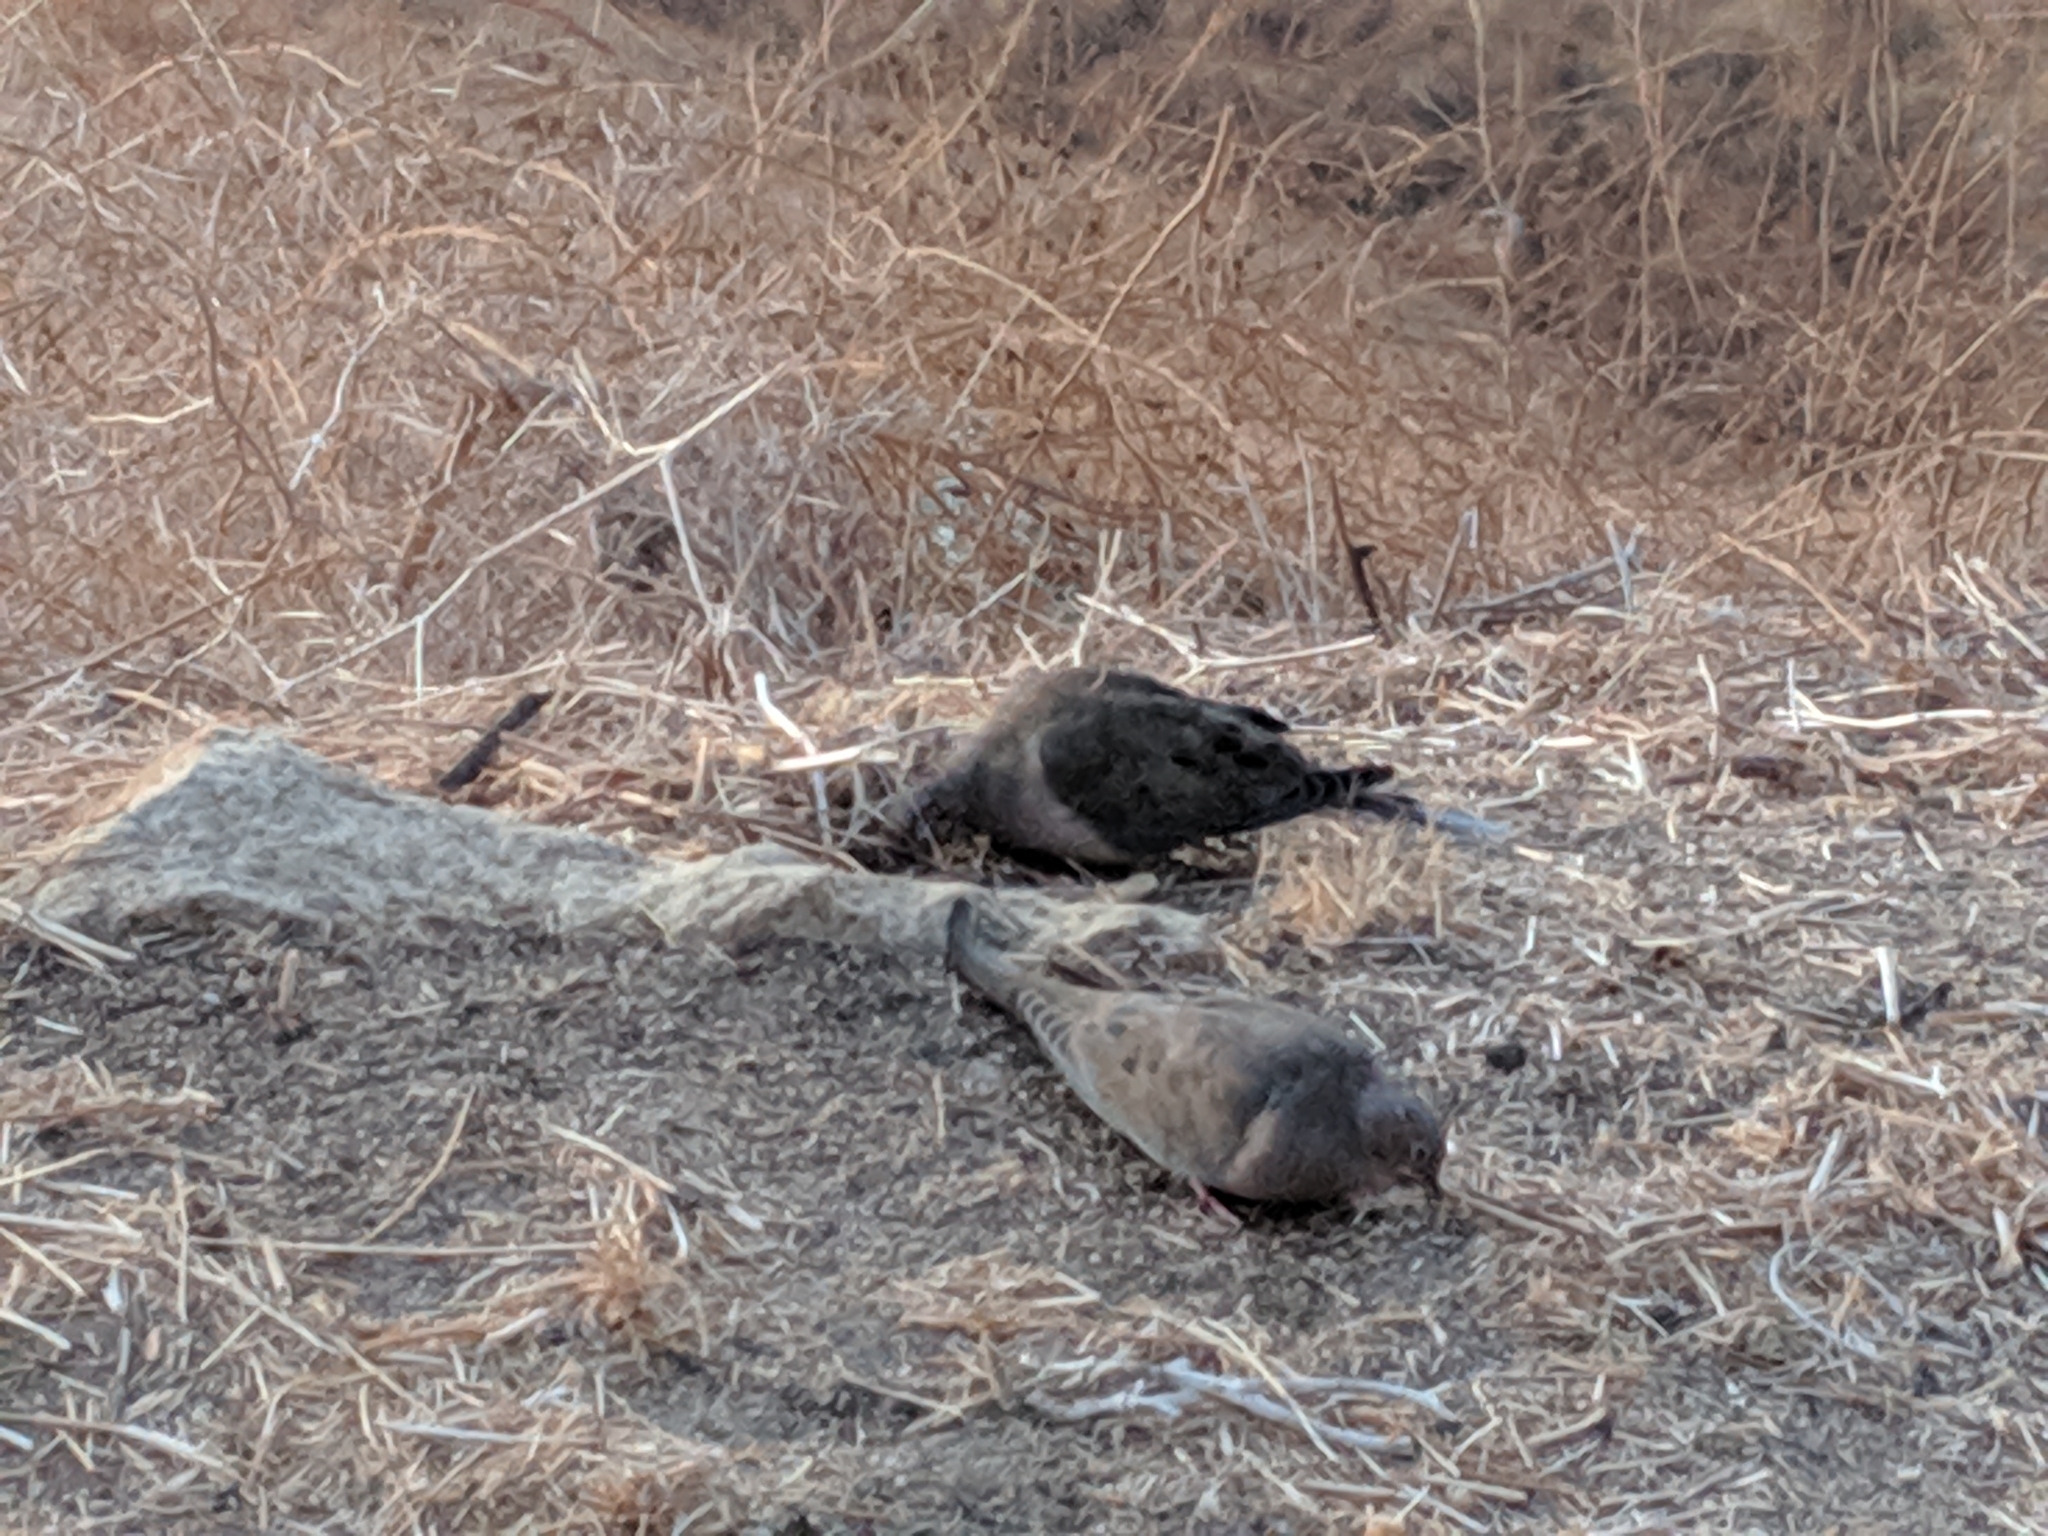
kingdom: Animalia
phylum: Chordata
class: Aves
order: Columbiformes
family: Columbidae
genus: Zenaida
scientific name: Zenaida macroura
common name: Mourning dove
